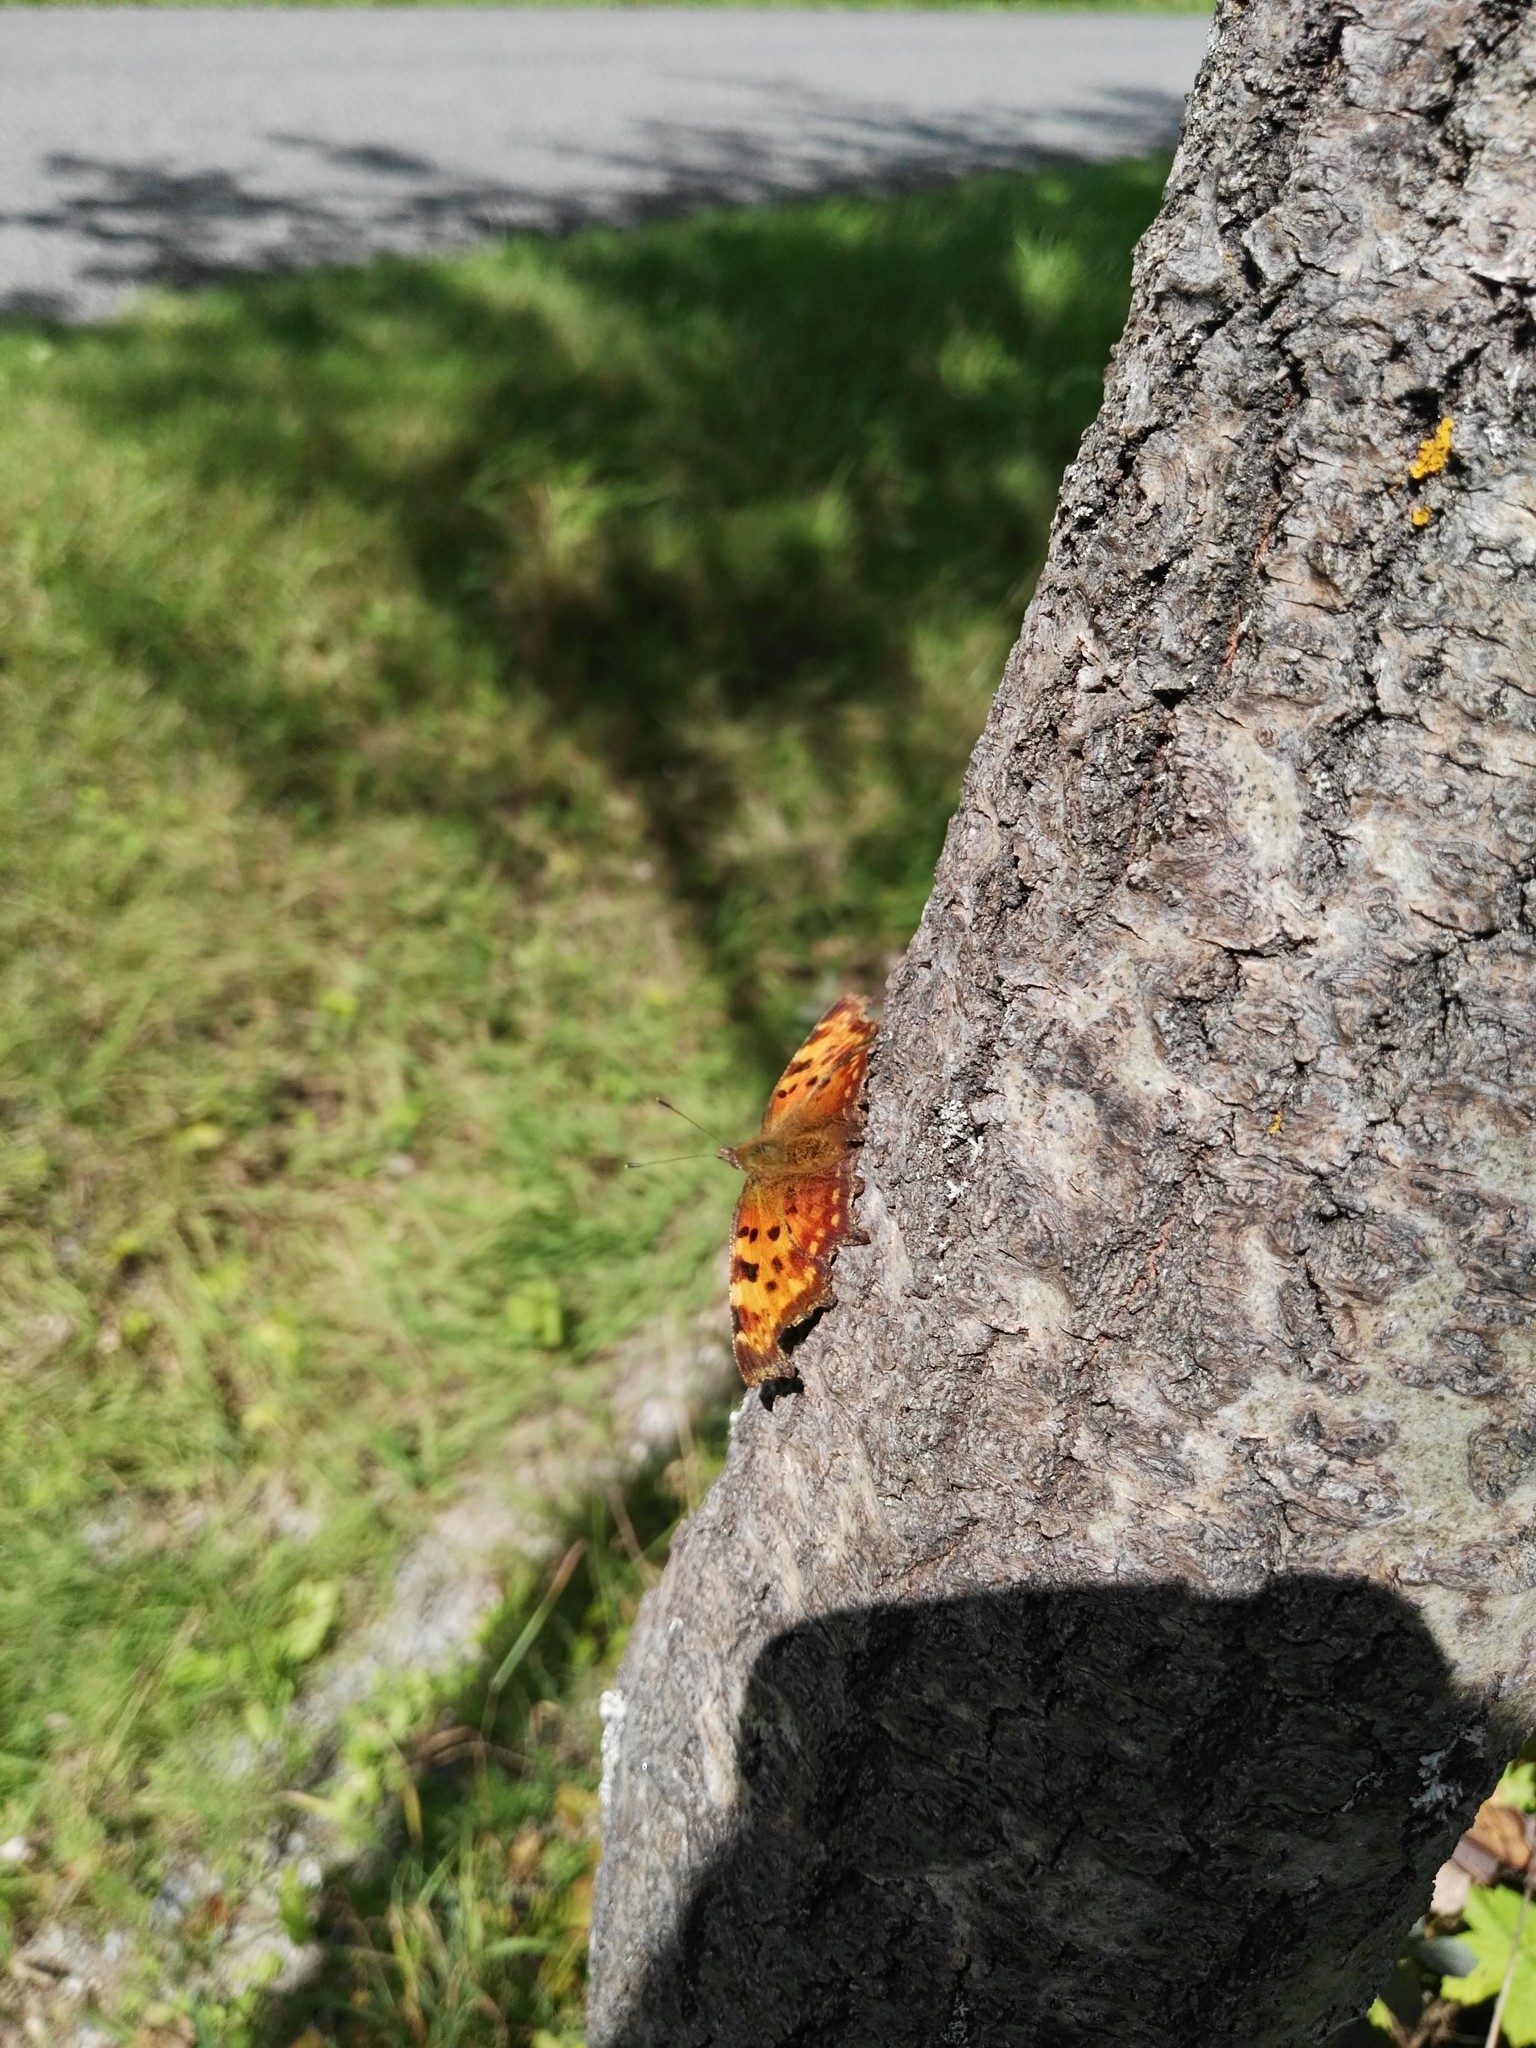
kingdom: Animalia
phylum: Arthropoda
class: Insecta
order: Lepidoptera
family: Nymphalidae
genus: Polygonia
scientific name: Polygonia c-album
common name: Comma
